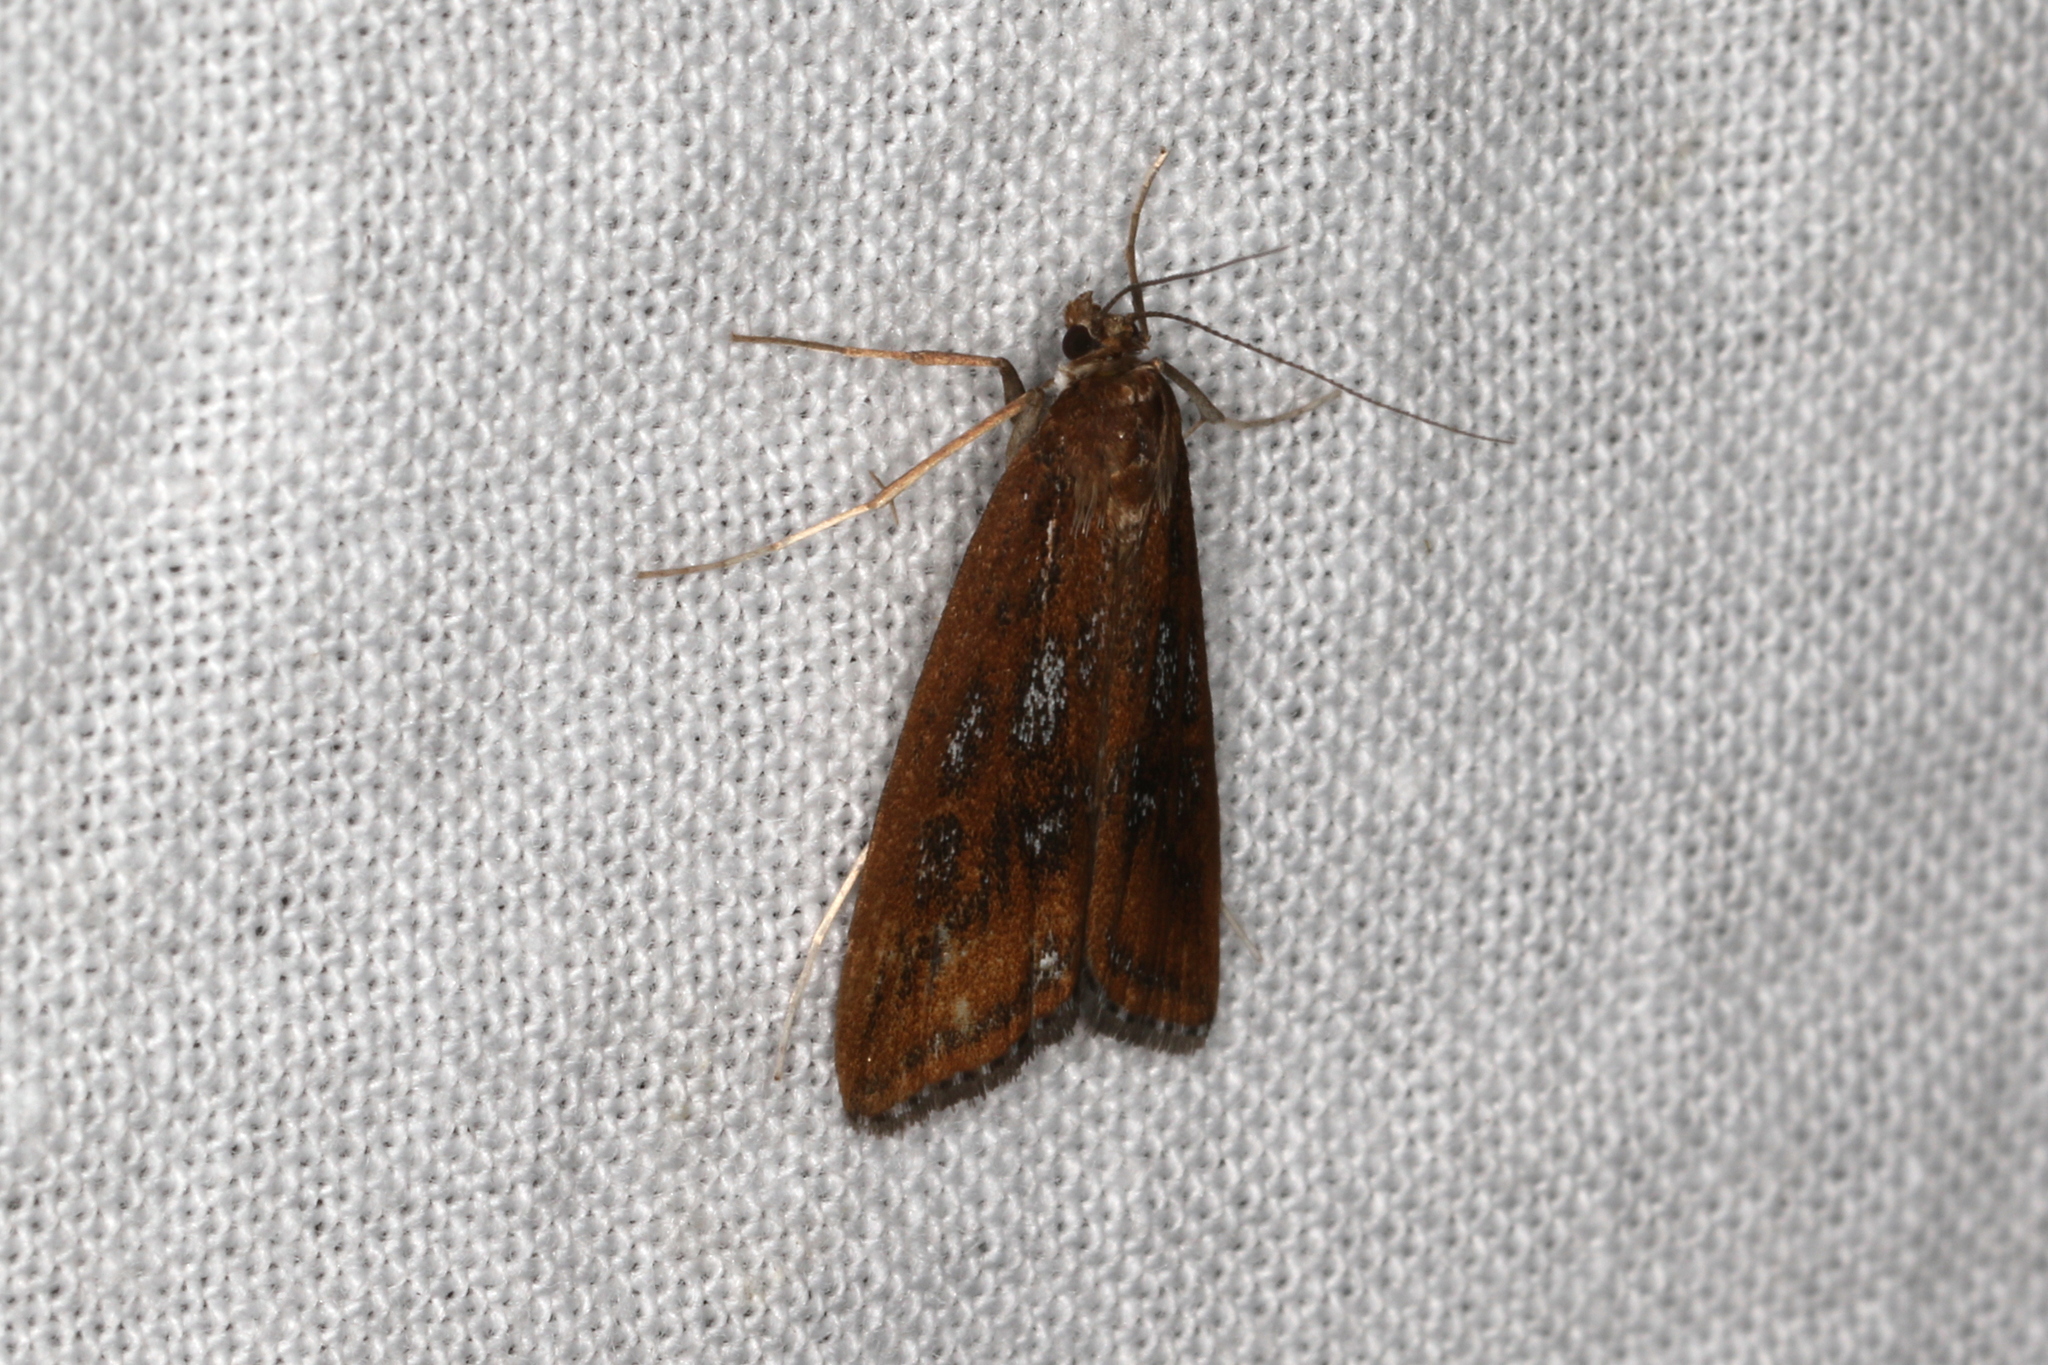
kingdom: Animalia
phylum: Arthropoda
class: Insecta
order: Lepidoptera
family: Crambidae
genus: Parapoynx
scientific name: Parapoynx tullialis
